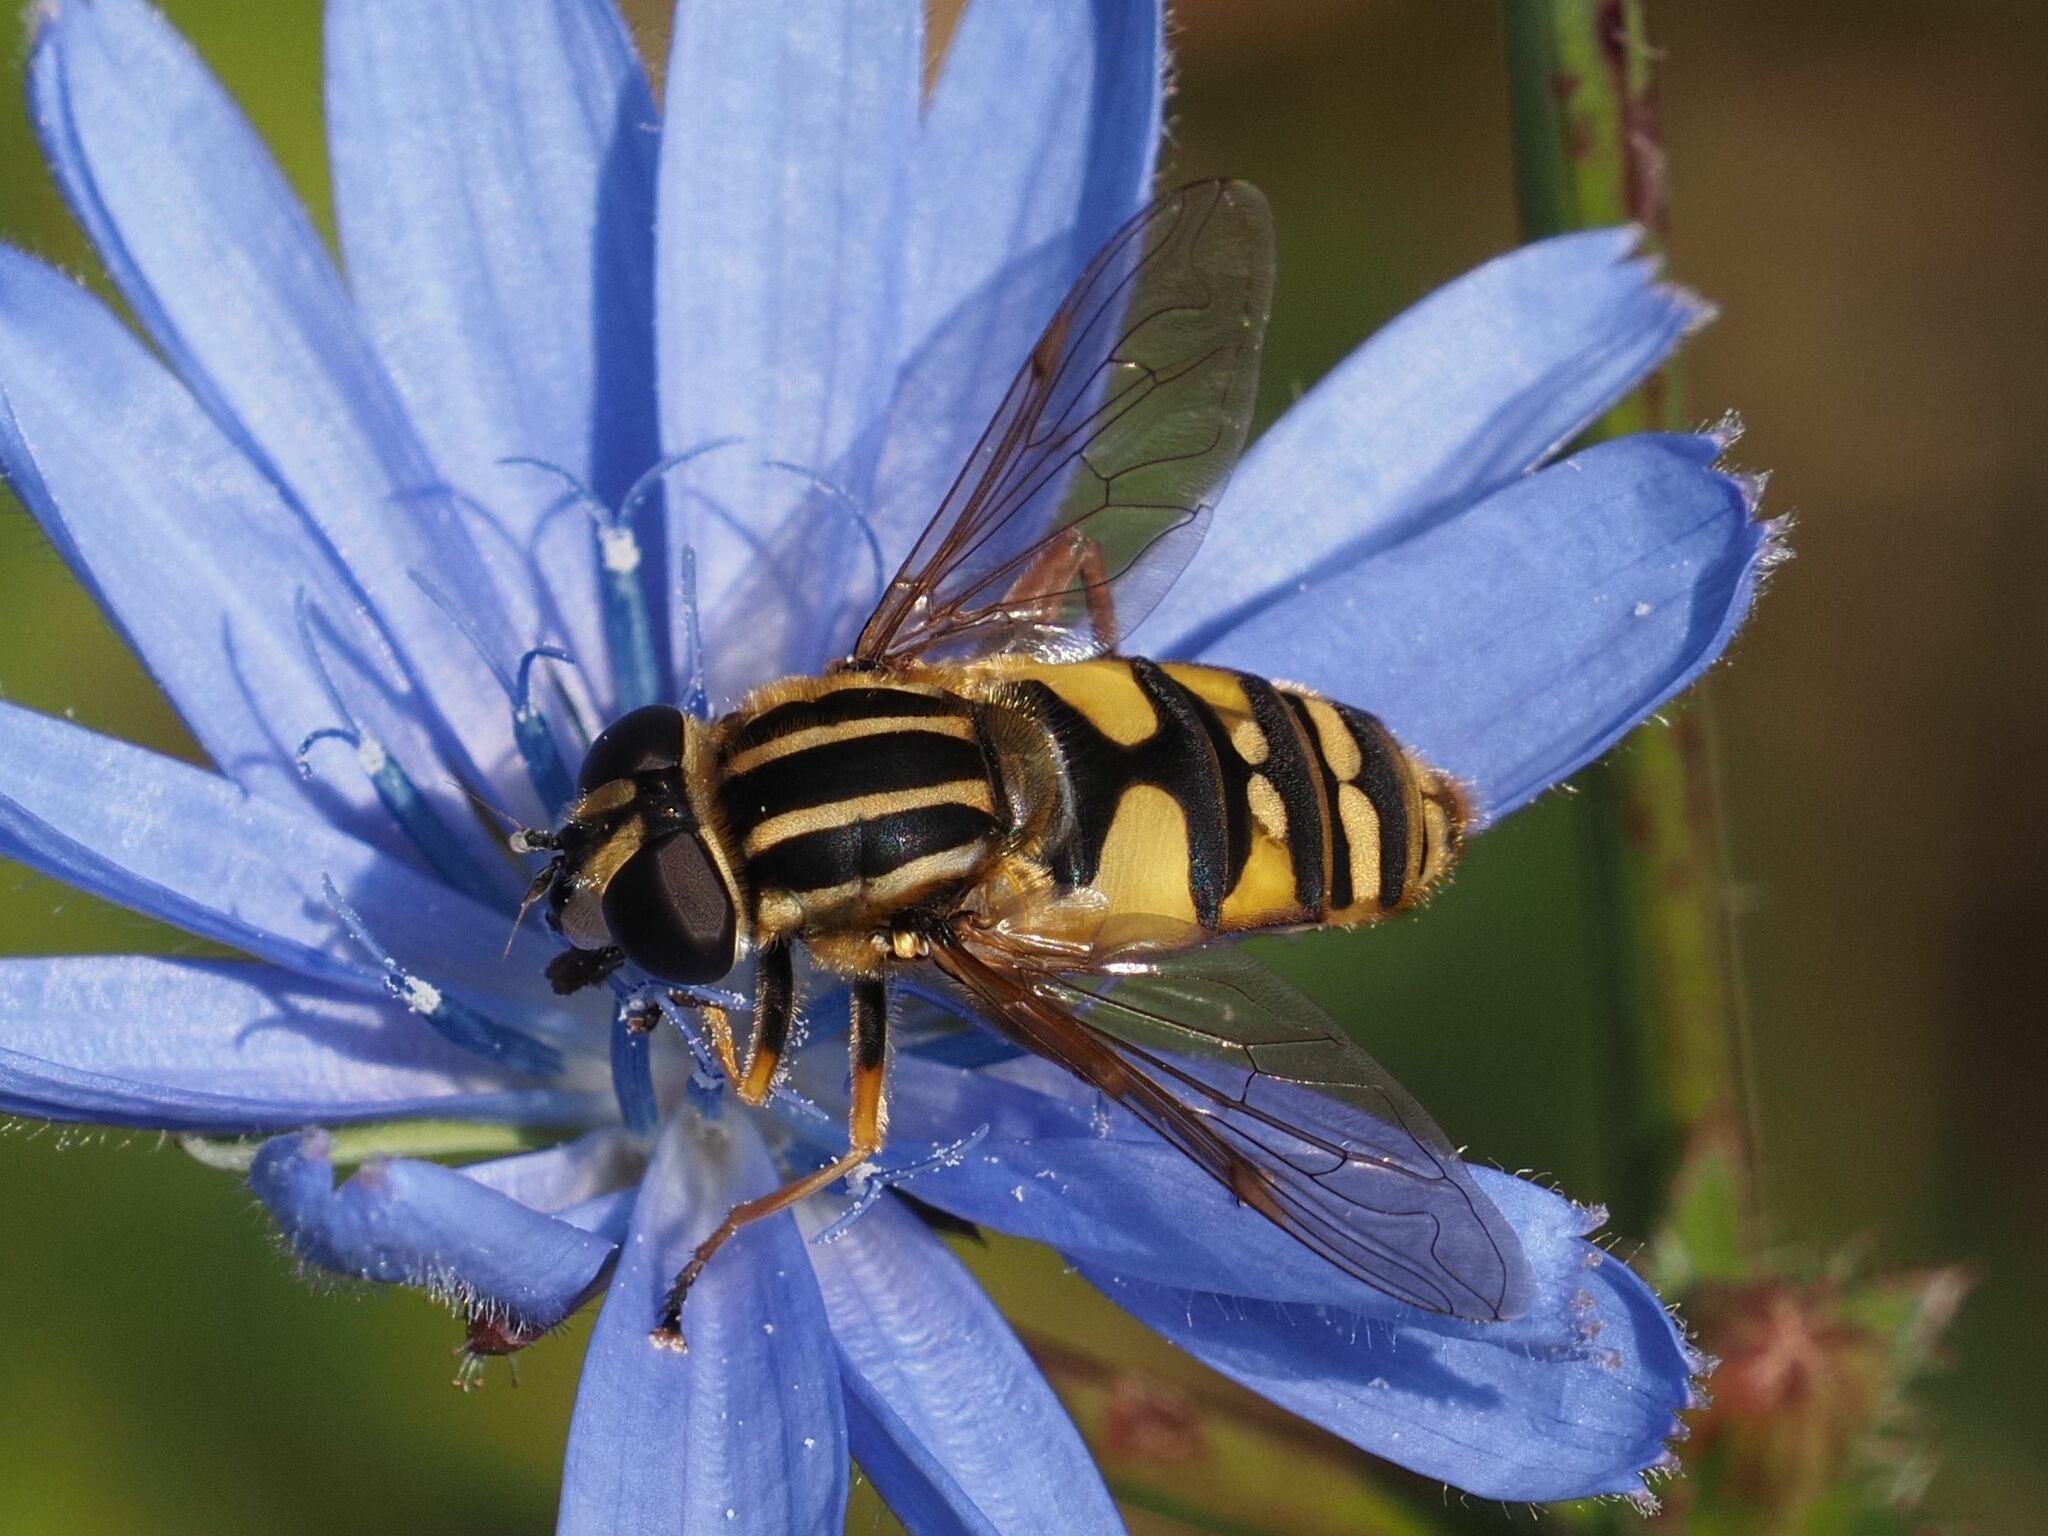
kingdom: Animalia
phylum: Arthropoda
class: Insecta
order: Diptera
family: Syrphidae
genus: Helophilus
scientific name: Helophilus pendulus
